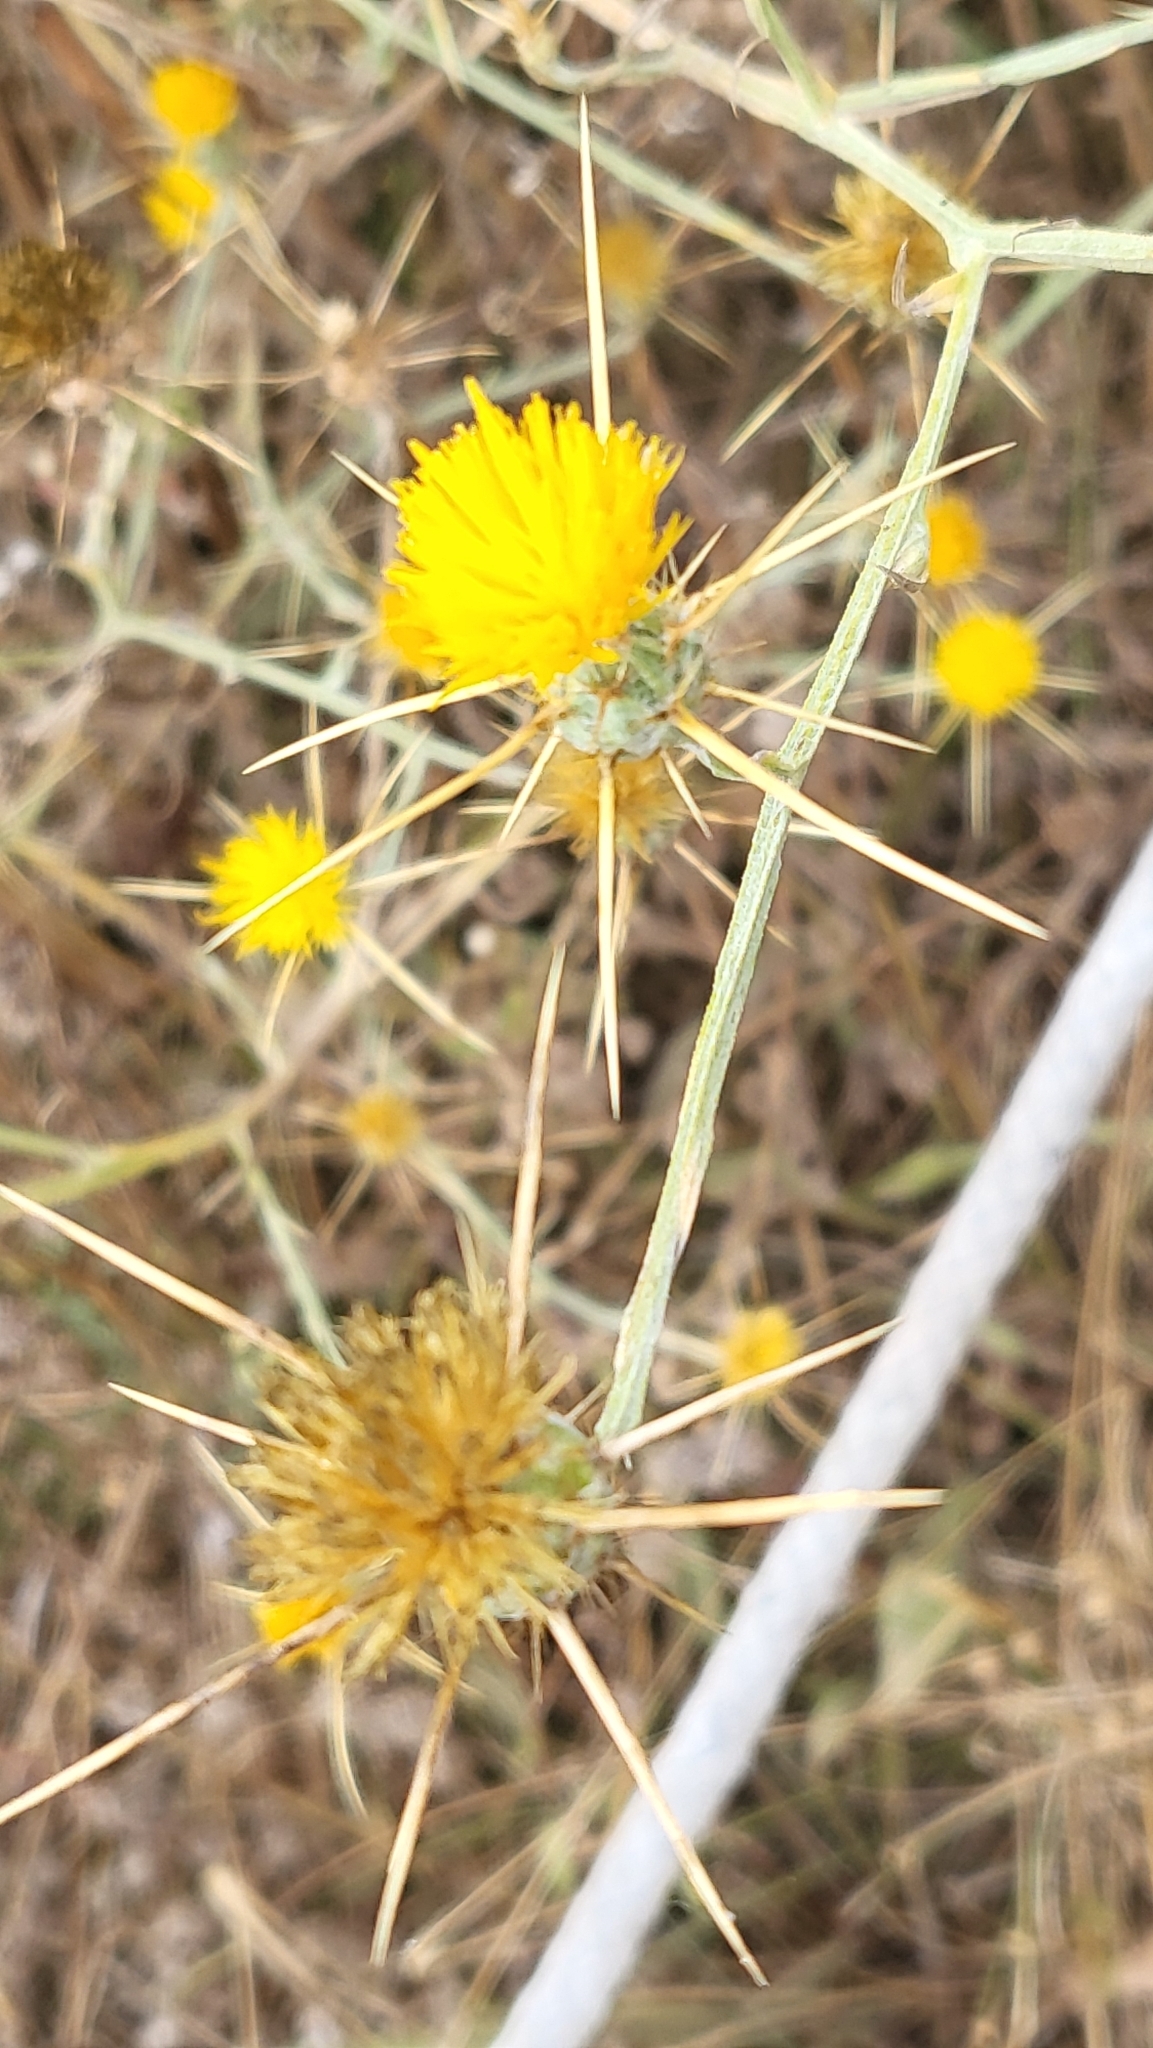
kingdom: Plantae
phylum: Tracheophyta
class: Magnoliopsida
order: Asterales
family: Asteraceae
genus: Centaurea
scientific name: Centaurea solstitialis
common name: Yellow star-thistle
